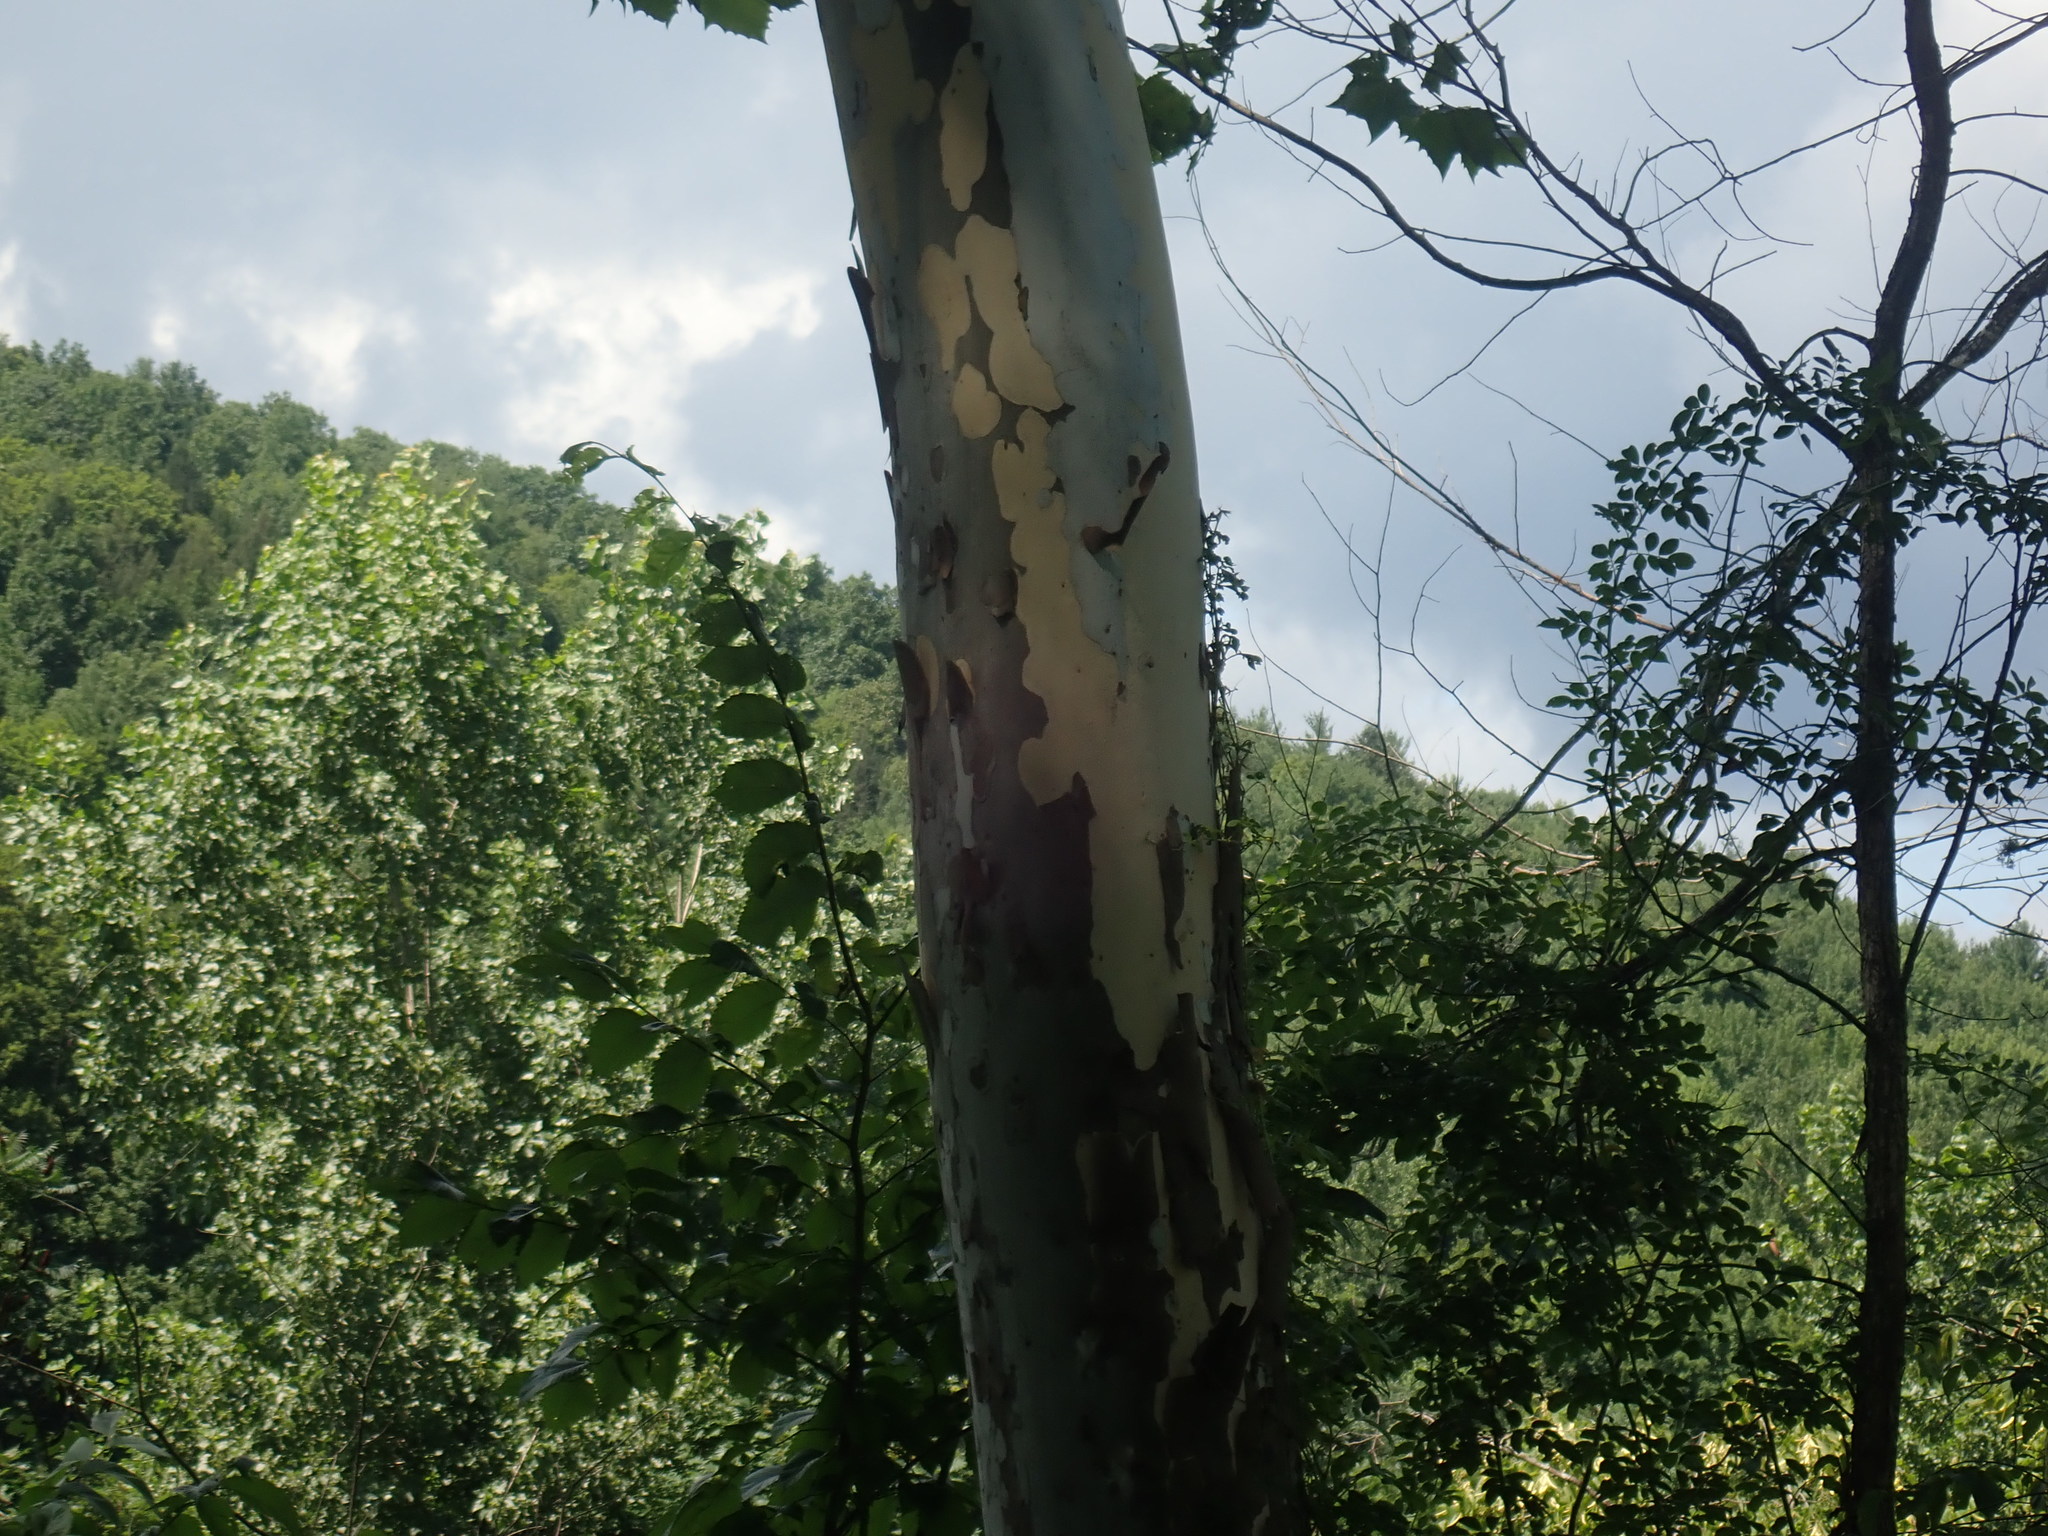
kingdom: Plantae
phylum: Tracheophyta
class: Magnoliopsida
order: Proteales
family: Platanaceae
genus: Platanus
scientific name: Platanus occidentalis
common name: American sycamore
